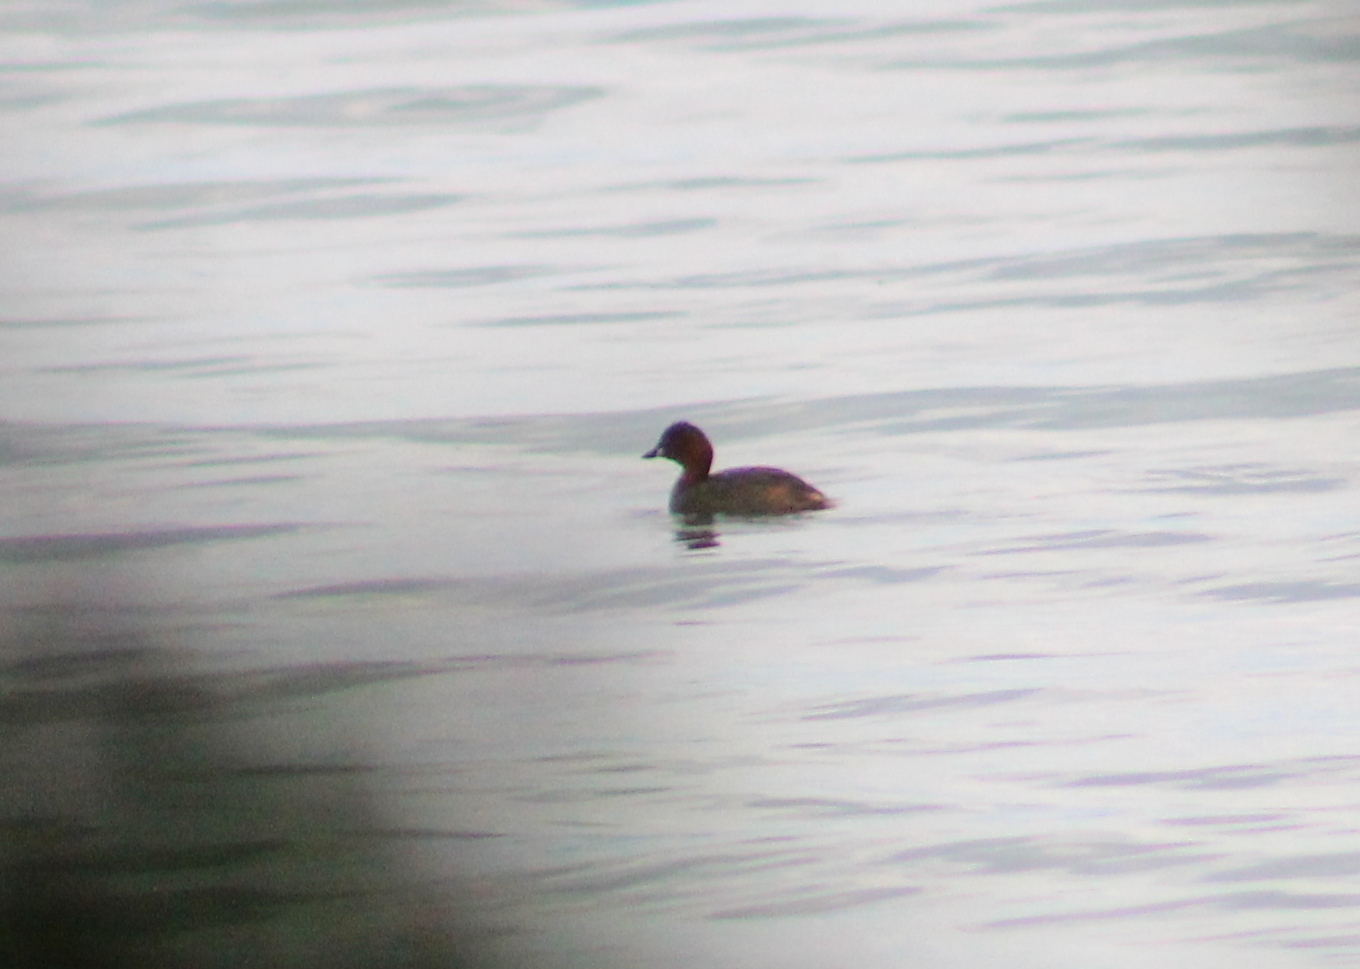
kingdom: Animalia
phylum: Chordata
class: Aves
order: Podicipediformes
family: Podicipedidae
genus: Tachybaptus
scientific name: Tachybaptus ruficollis
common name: Little grebe
